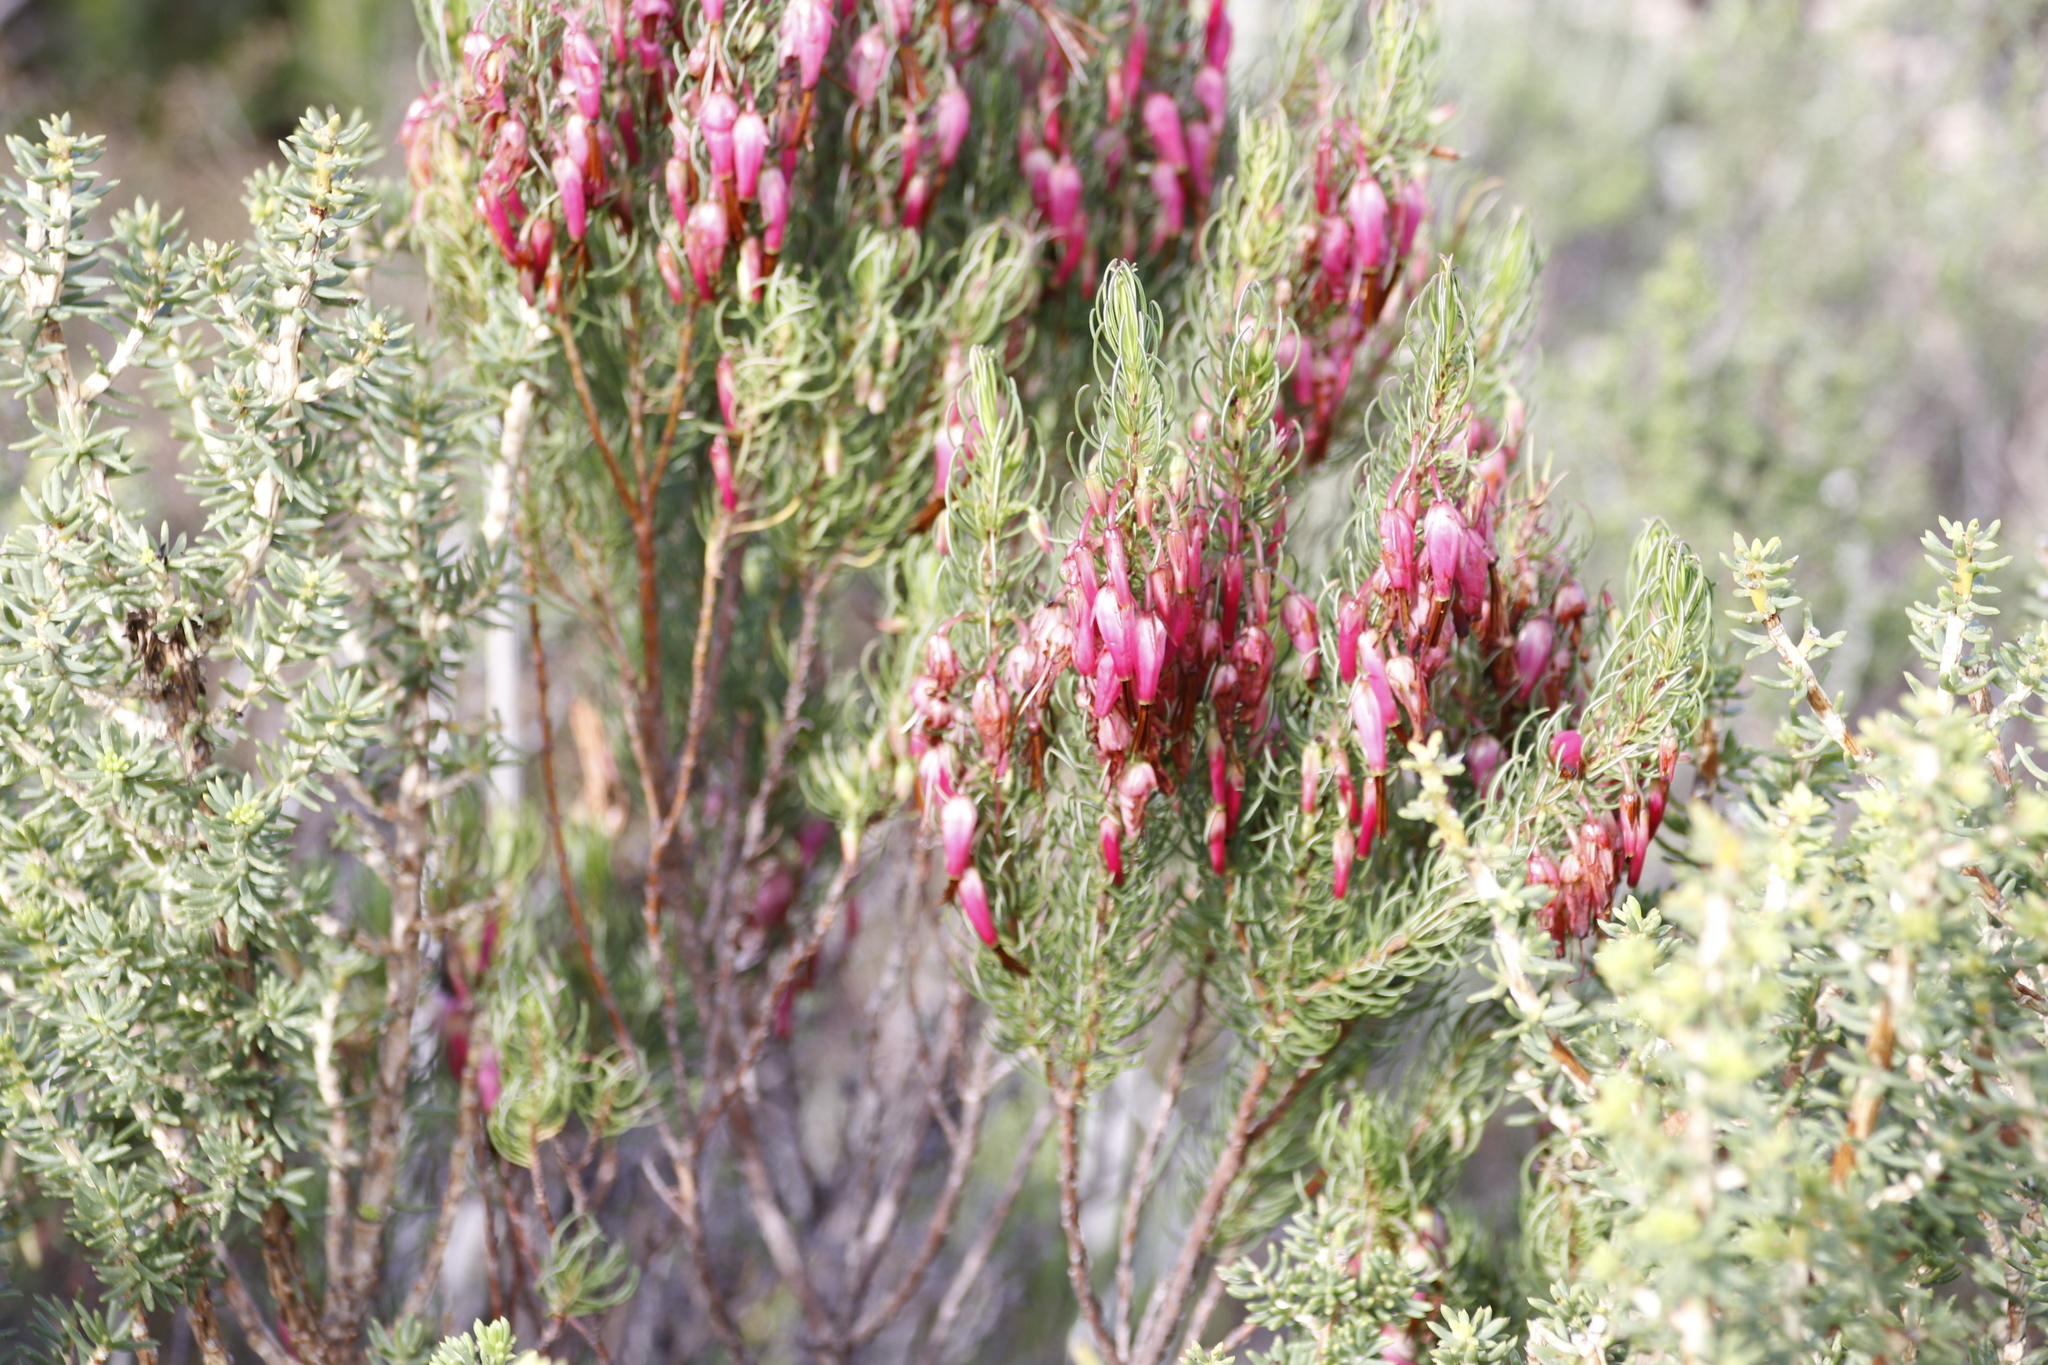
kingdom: Plantae
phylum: Tracheophyta
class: Magnoliopsida
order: Ericales
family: Ericaceae
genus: Erica
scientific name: Erica plukenetii
